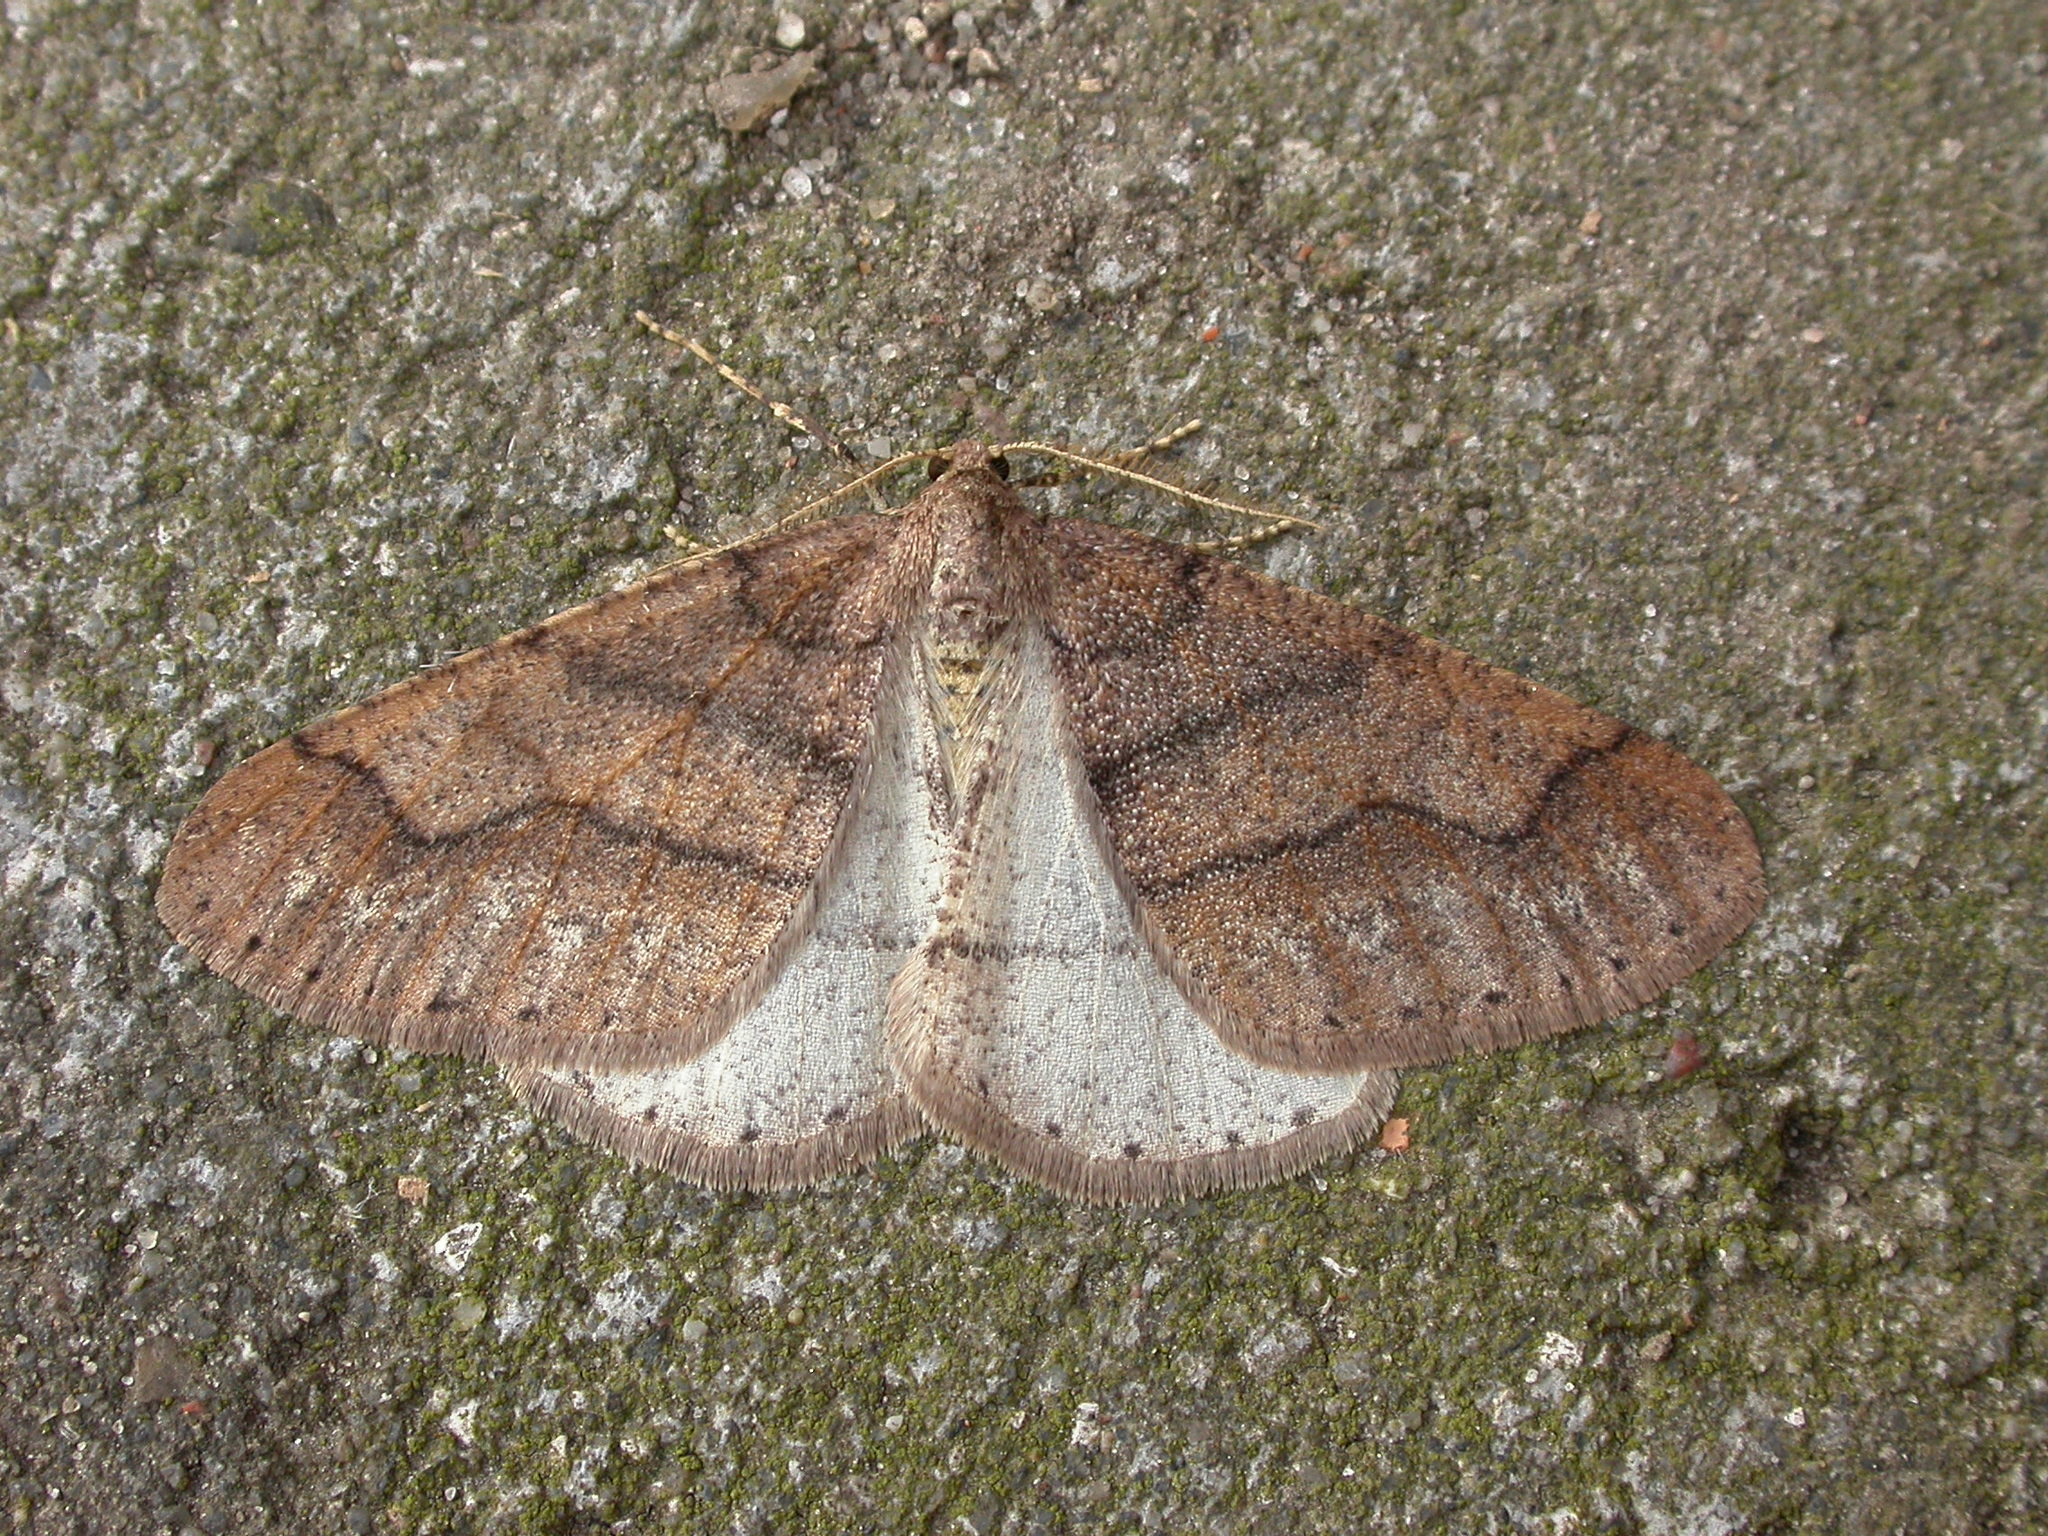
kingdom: Animalia
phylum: Arthropoda
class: Insecta
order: Lepidoptera
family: Geometridae
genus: Agriopis
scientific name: Agriopis marginaria
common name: Dotted border
